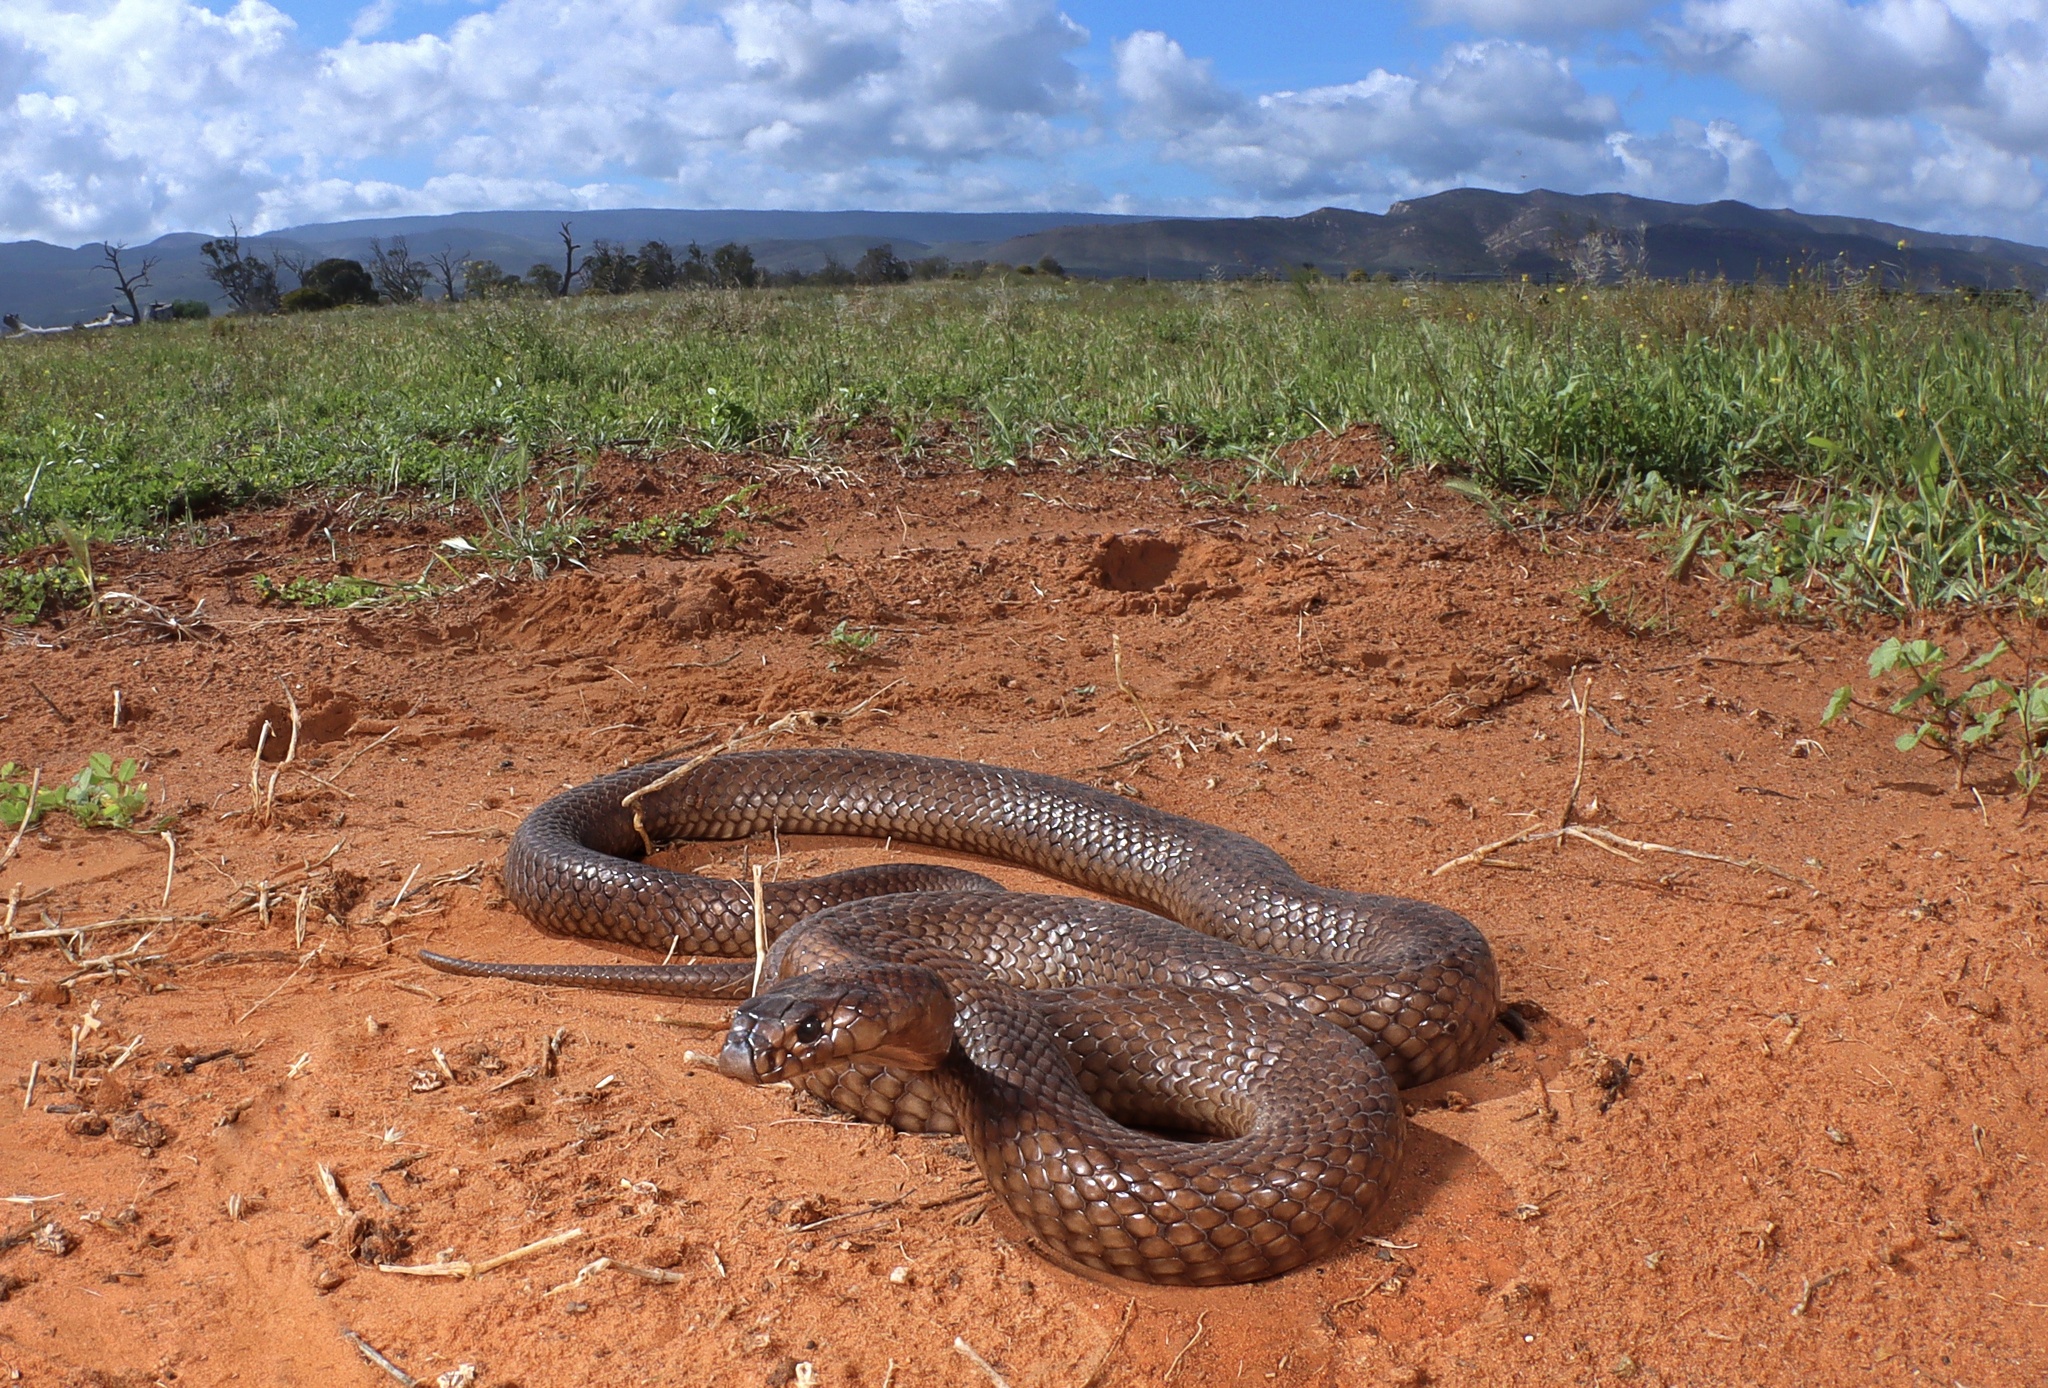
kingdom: Animalia
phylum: Chordata
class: Squamata
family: Elapidae
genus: Pseudonaja
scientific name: Pseudonaja aspidorhyncha
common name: Strap-snouted brown snake
